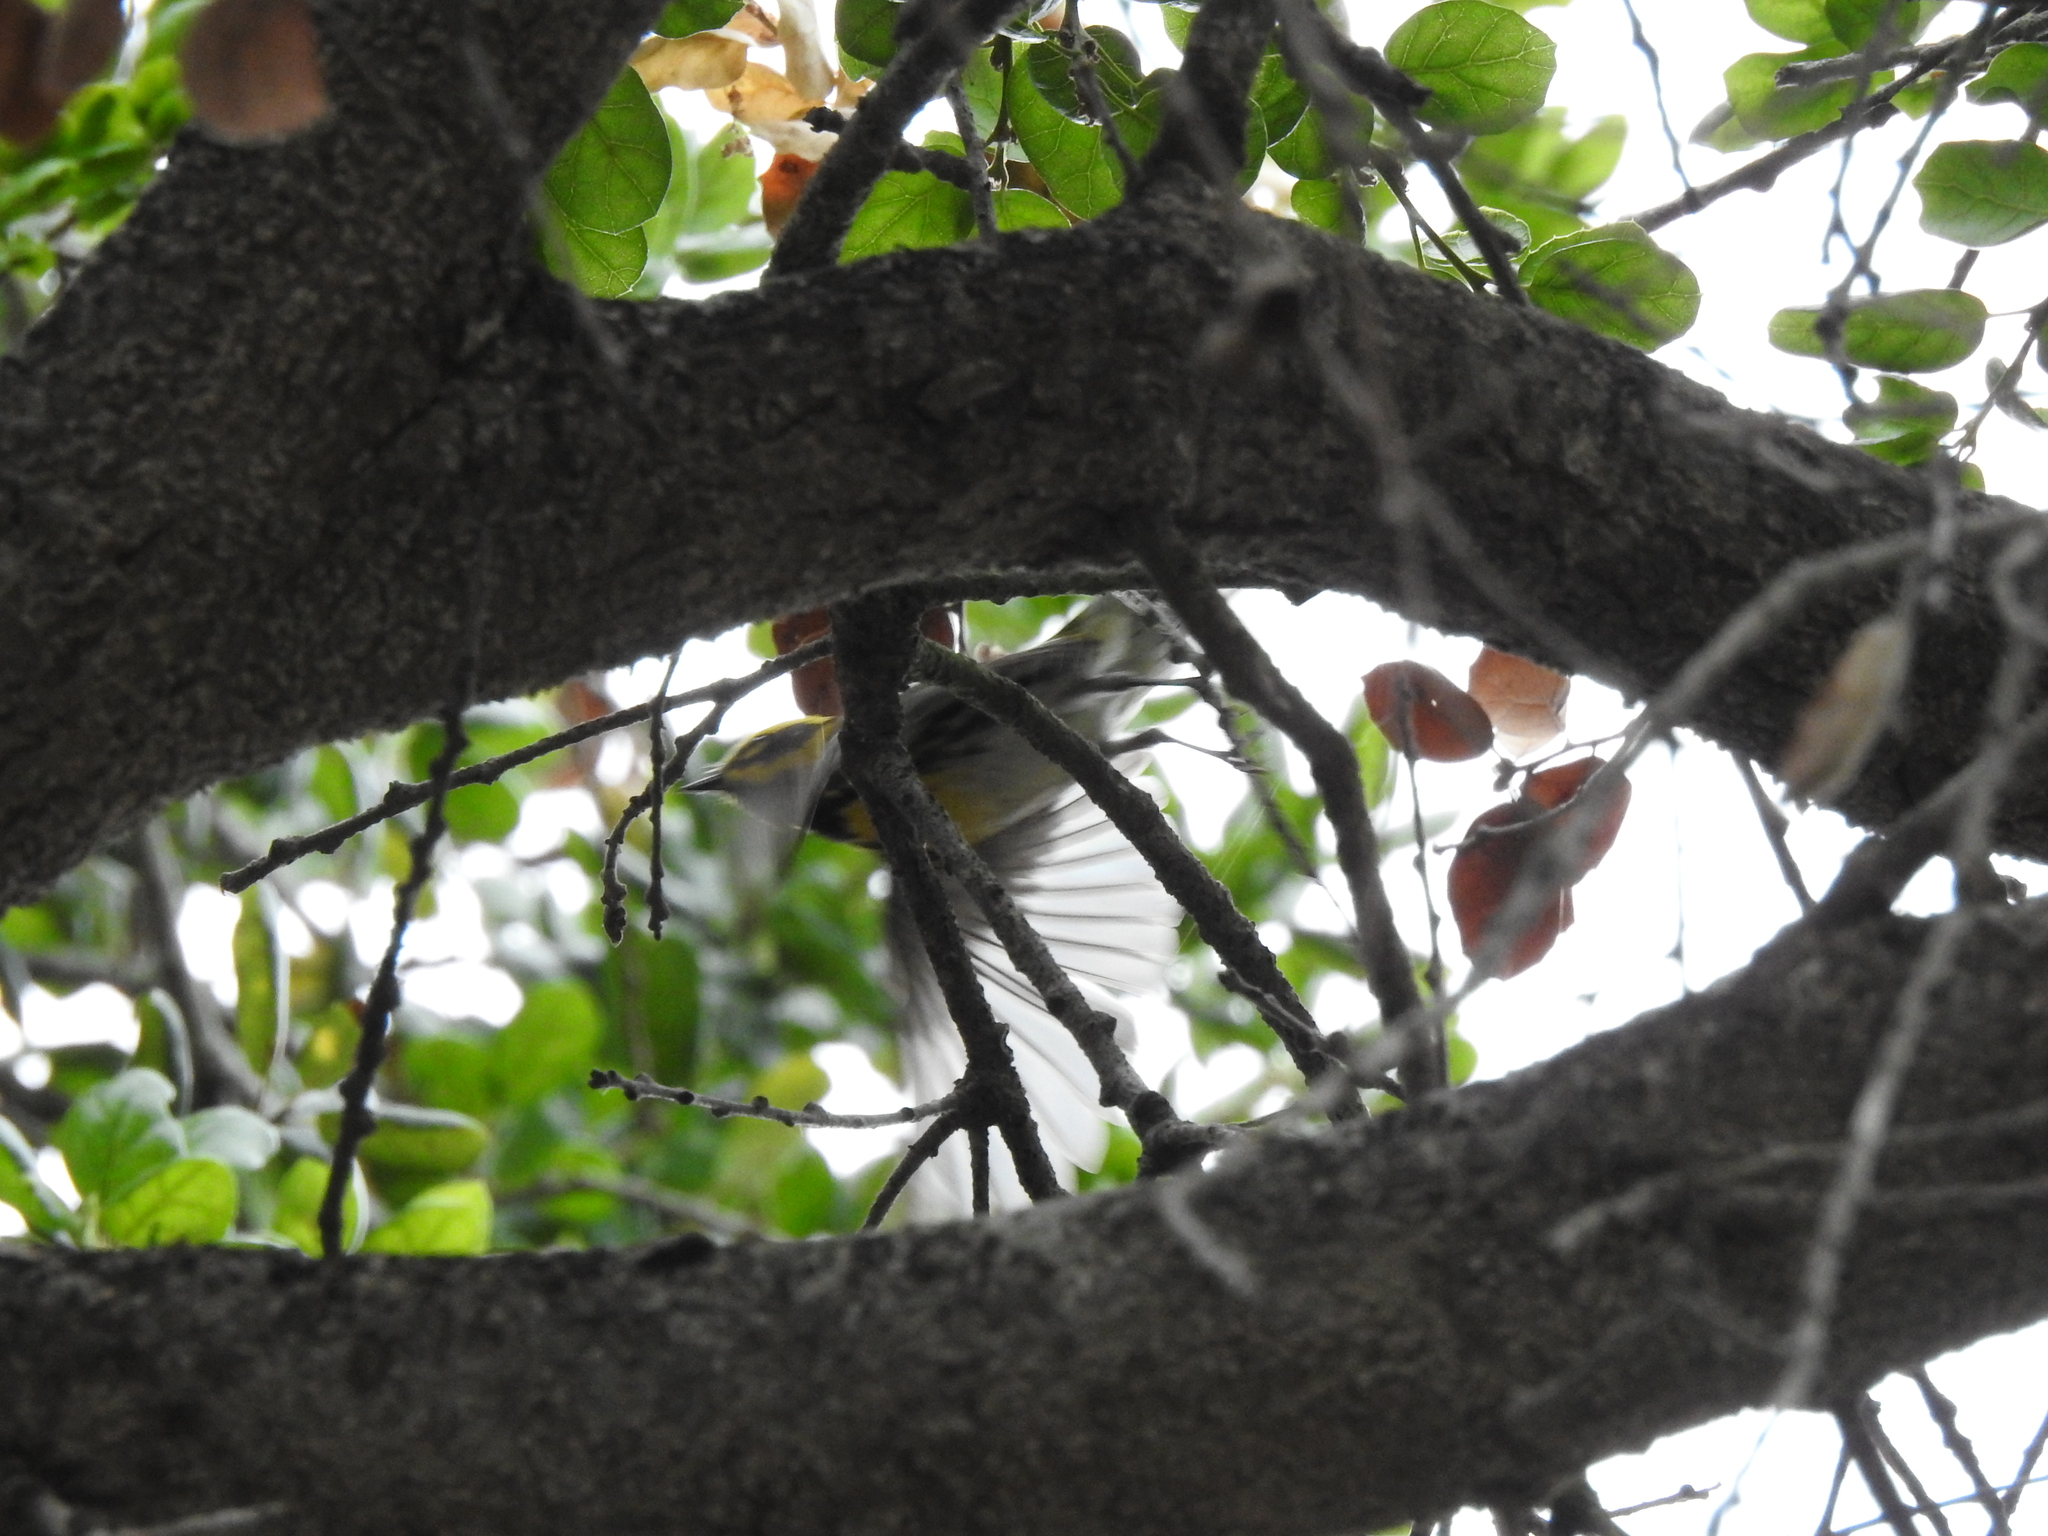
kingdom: Animalia
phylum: Chordata
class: Aves
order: Passeriformes
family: Parulidae
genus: Setophaga
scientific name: Setophaga townsendi
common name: Townsend's warbler
